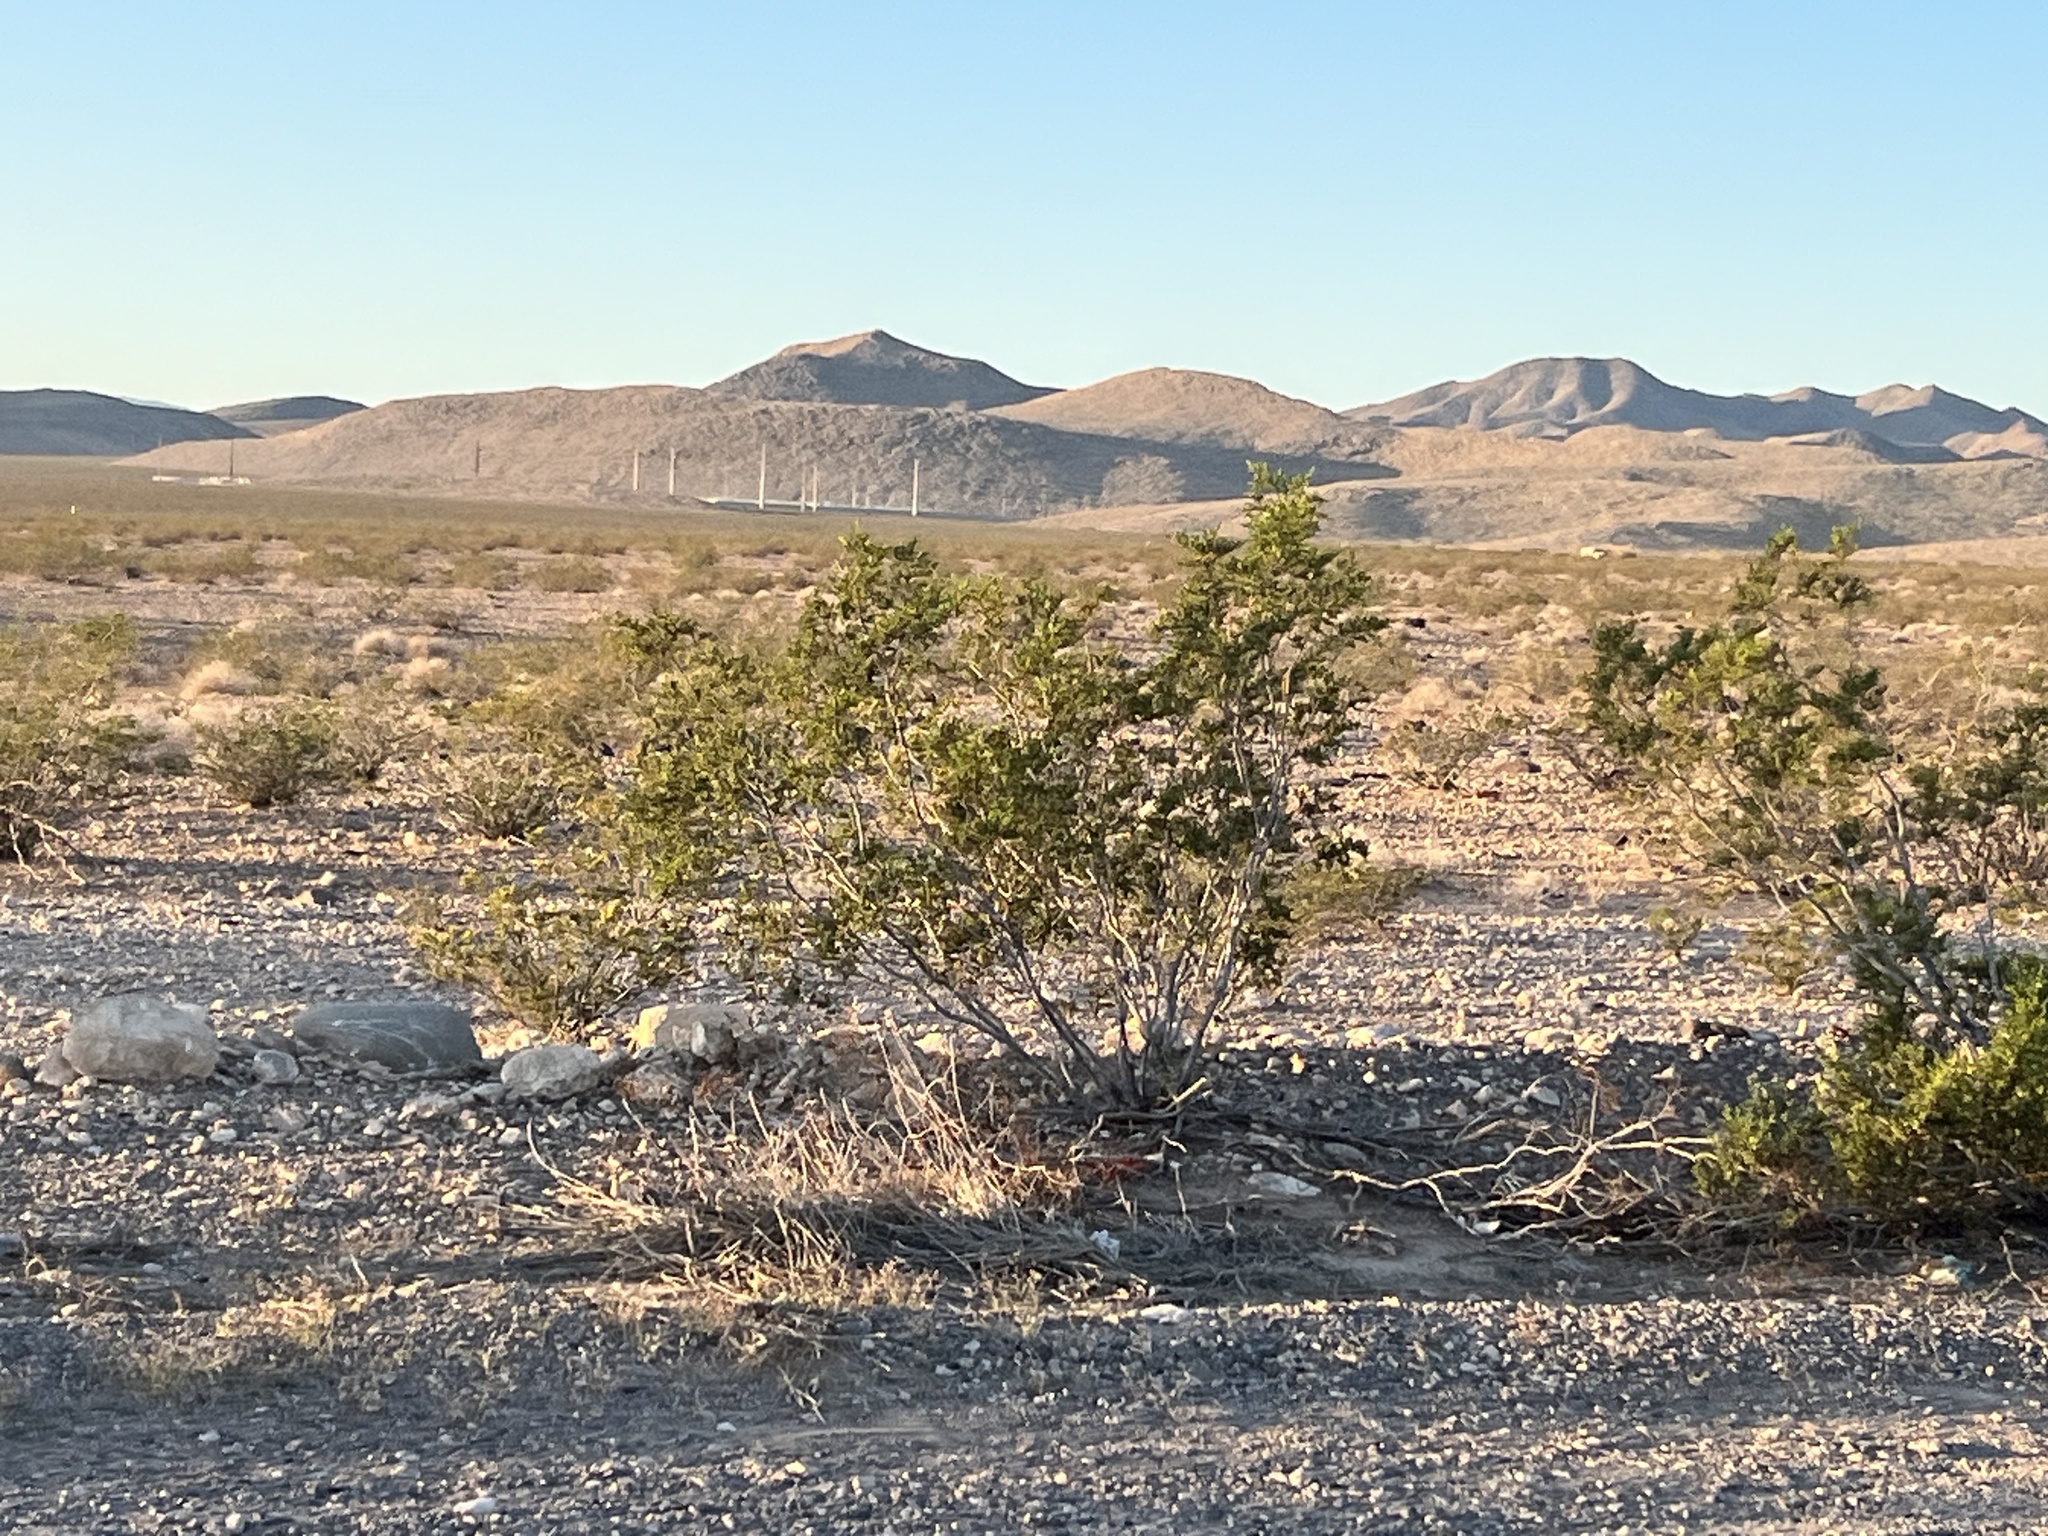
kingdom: Plantae
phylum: Tracheophyta
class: Magnoliopsida
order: Zygophyllales
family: Zygophyllaceae
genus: Larrea
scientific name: Larrea tridentata
